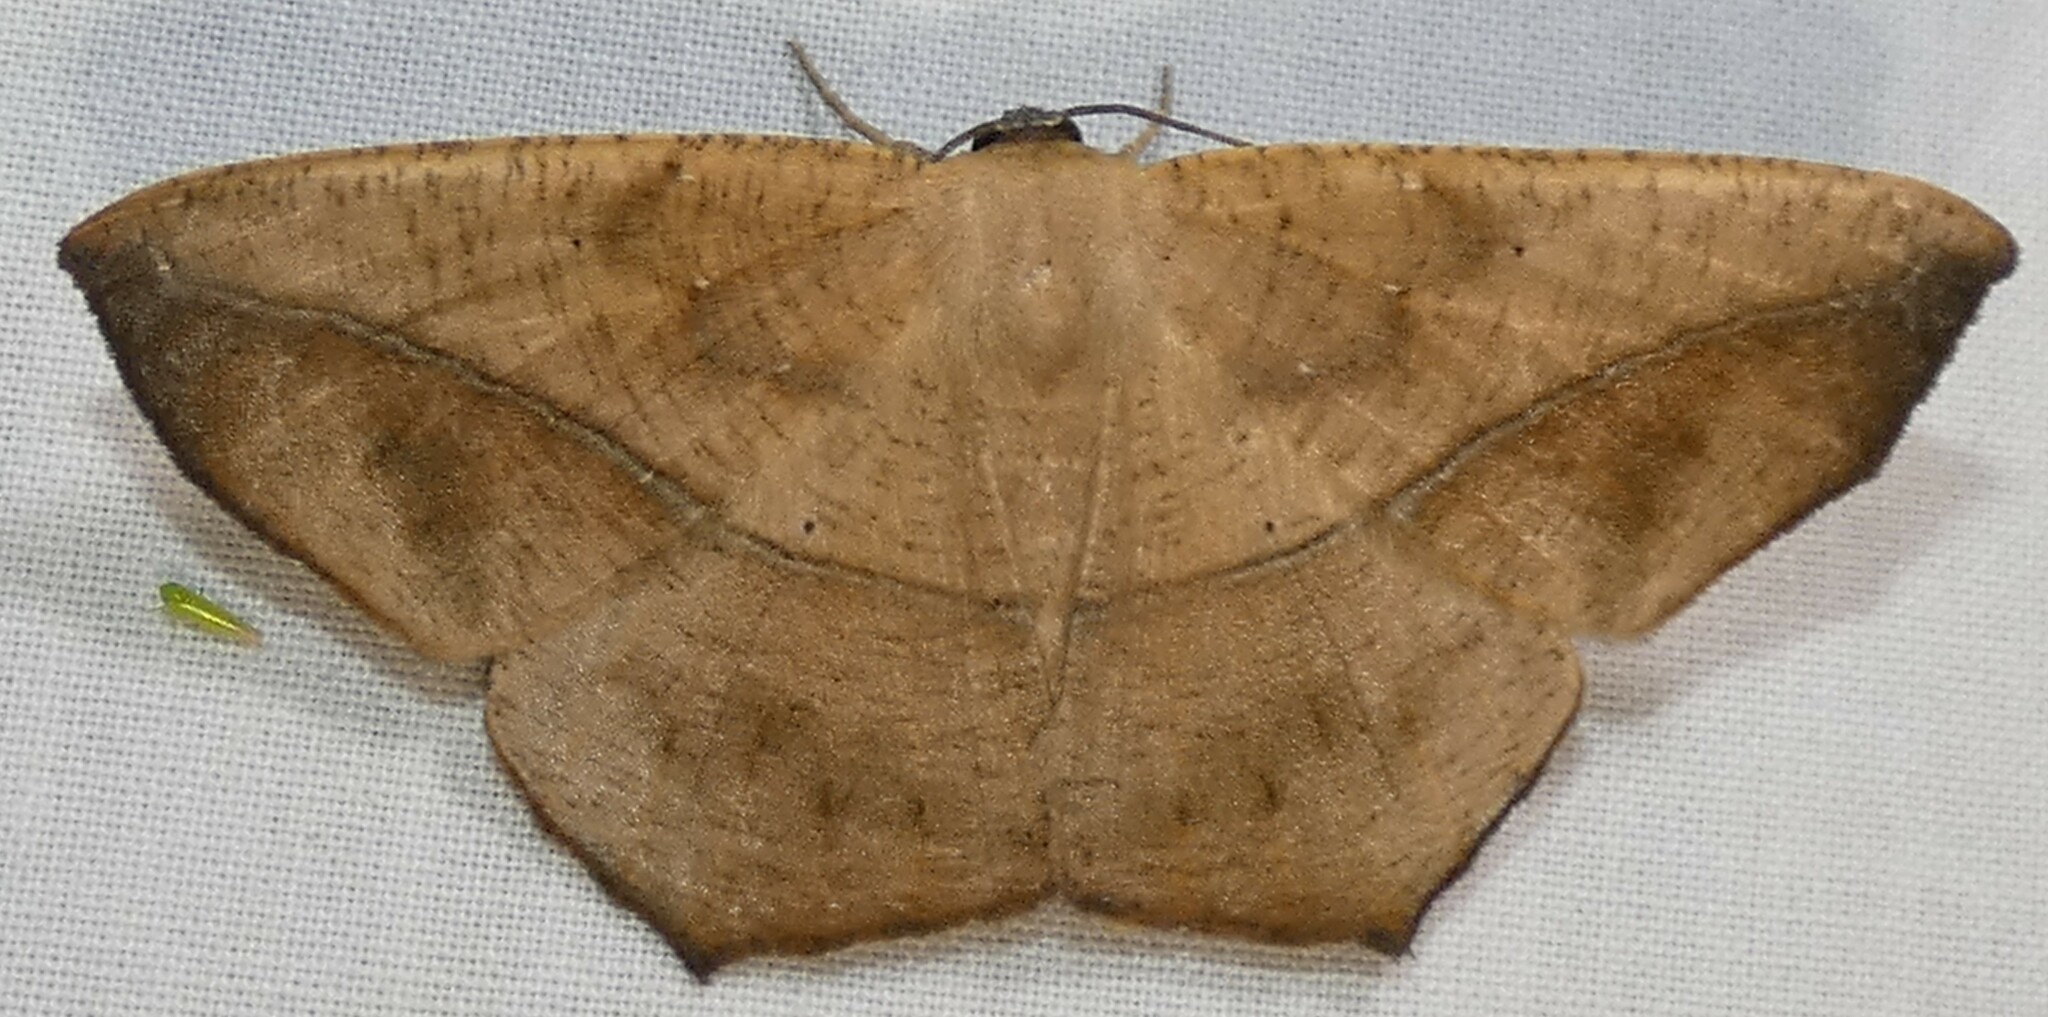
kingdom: Animalia
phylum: Arthropoda
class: Insecta
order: Lepidoptera
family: Geometridae
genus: Prochoerodes
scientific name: Prochoerodes lineola
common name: Large maple spanworm
